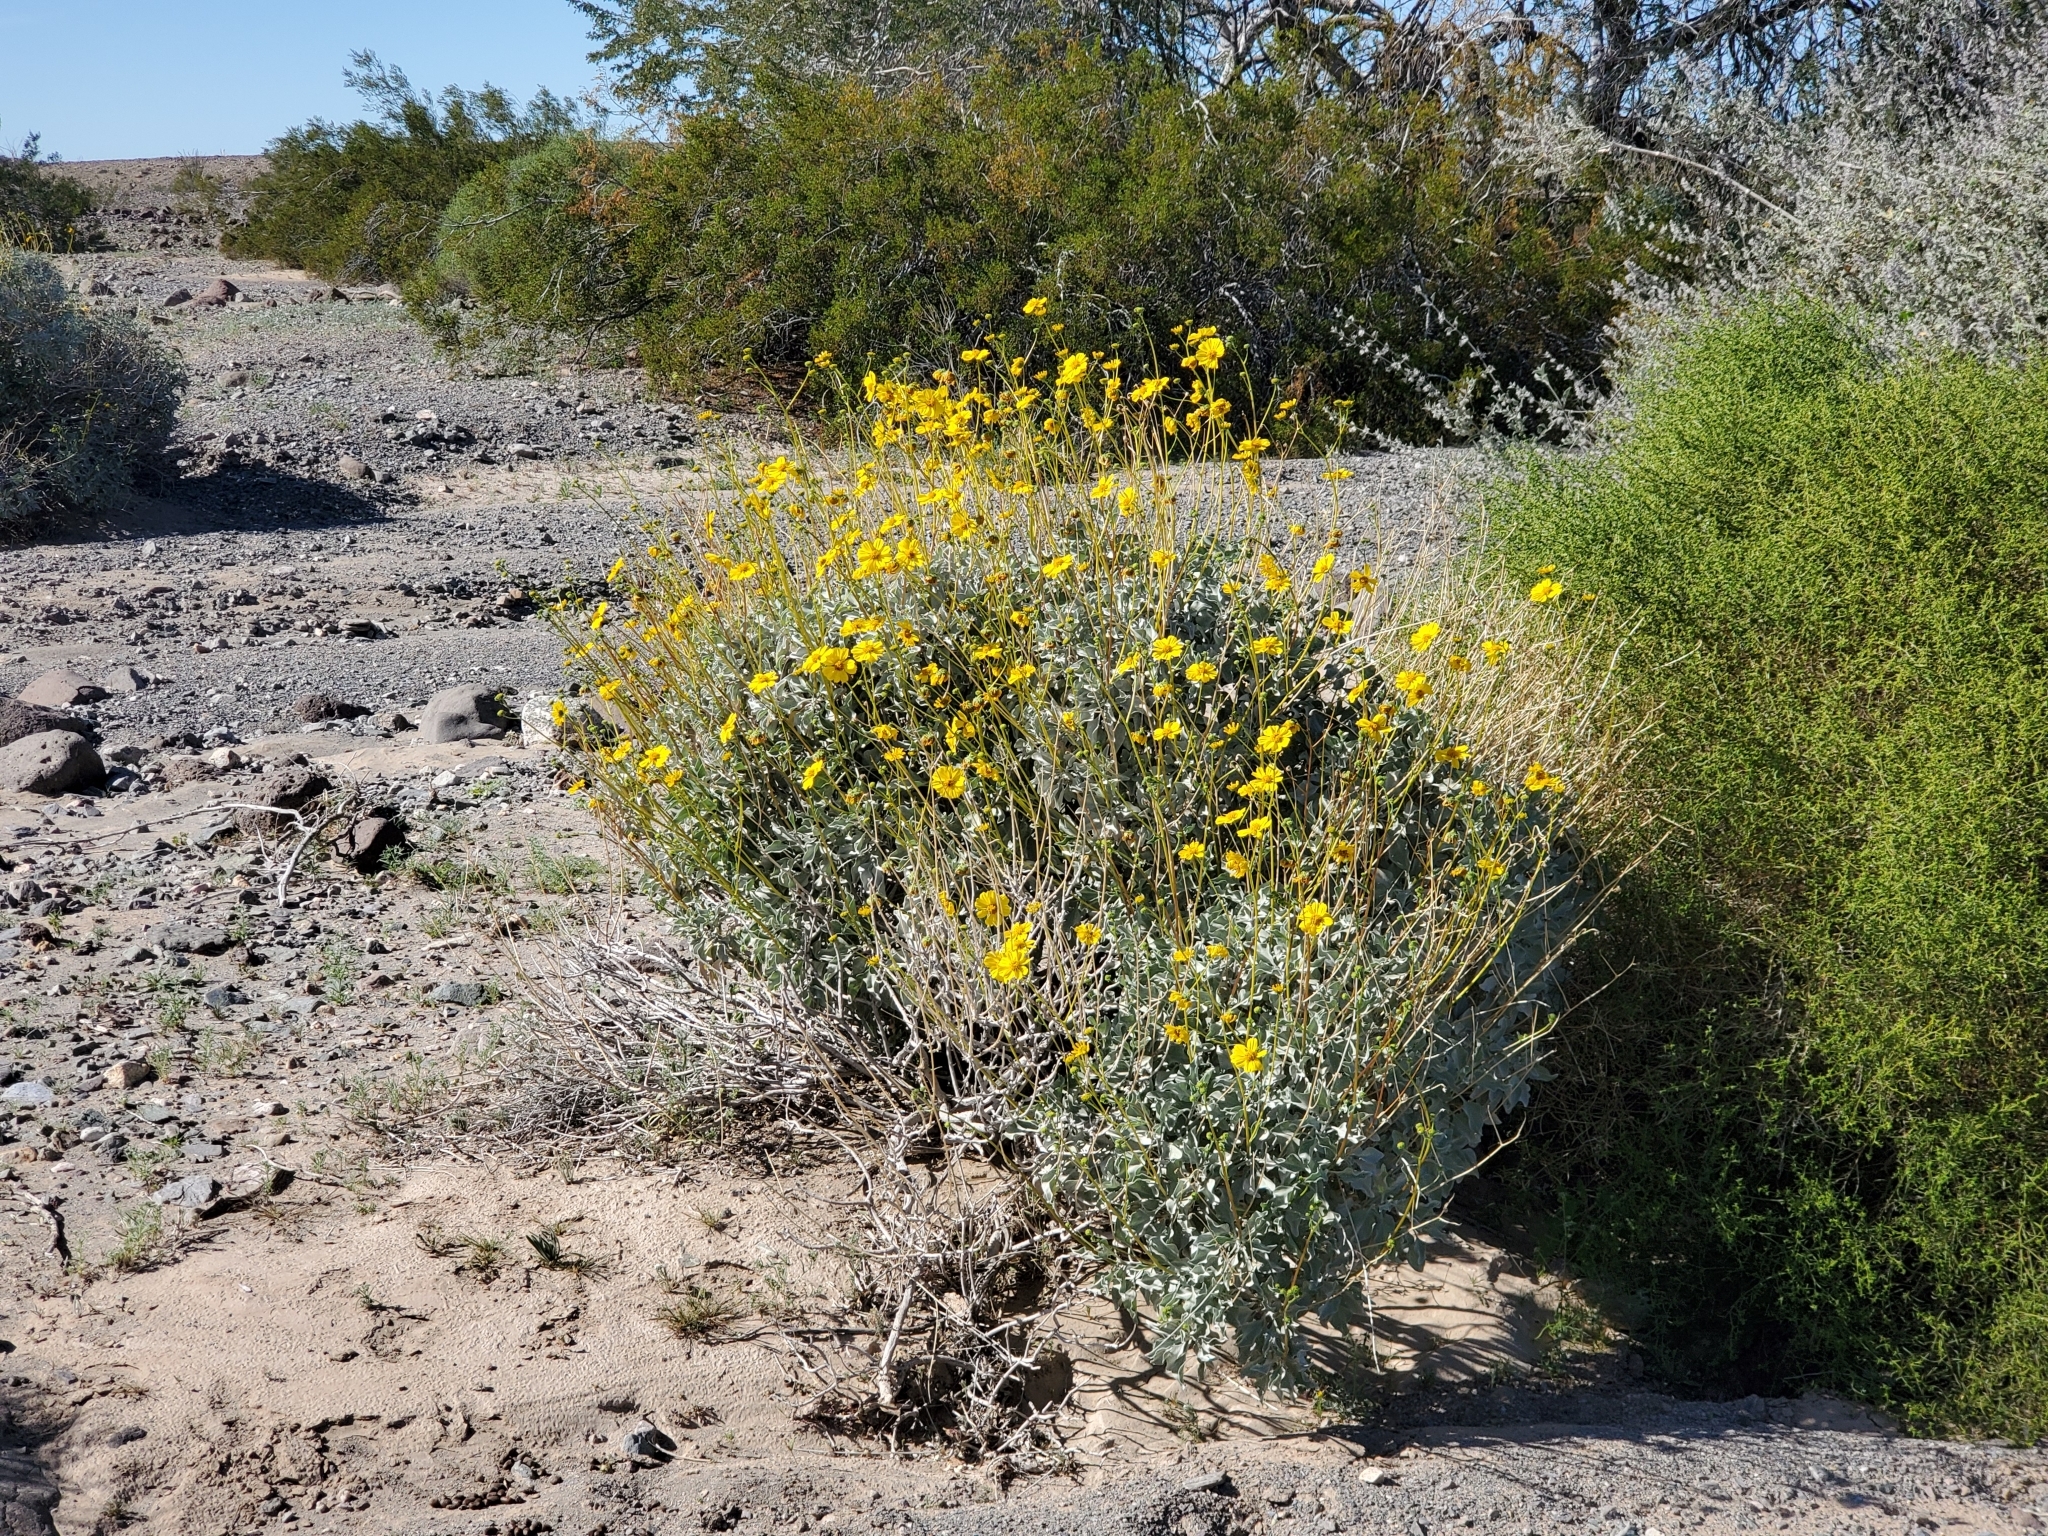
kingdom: Plantae
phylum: Tracheophyta
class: Magnoliopsida
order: Asterales
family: Asteraceae
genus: Encelia
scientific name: Encelia farinosa
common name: Brittlebush
